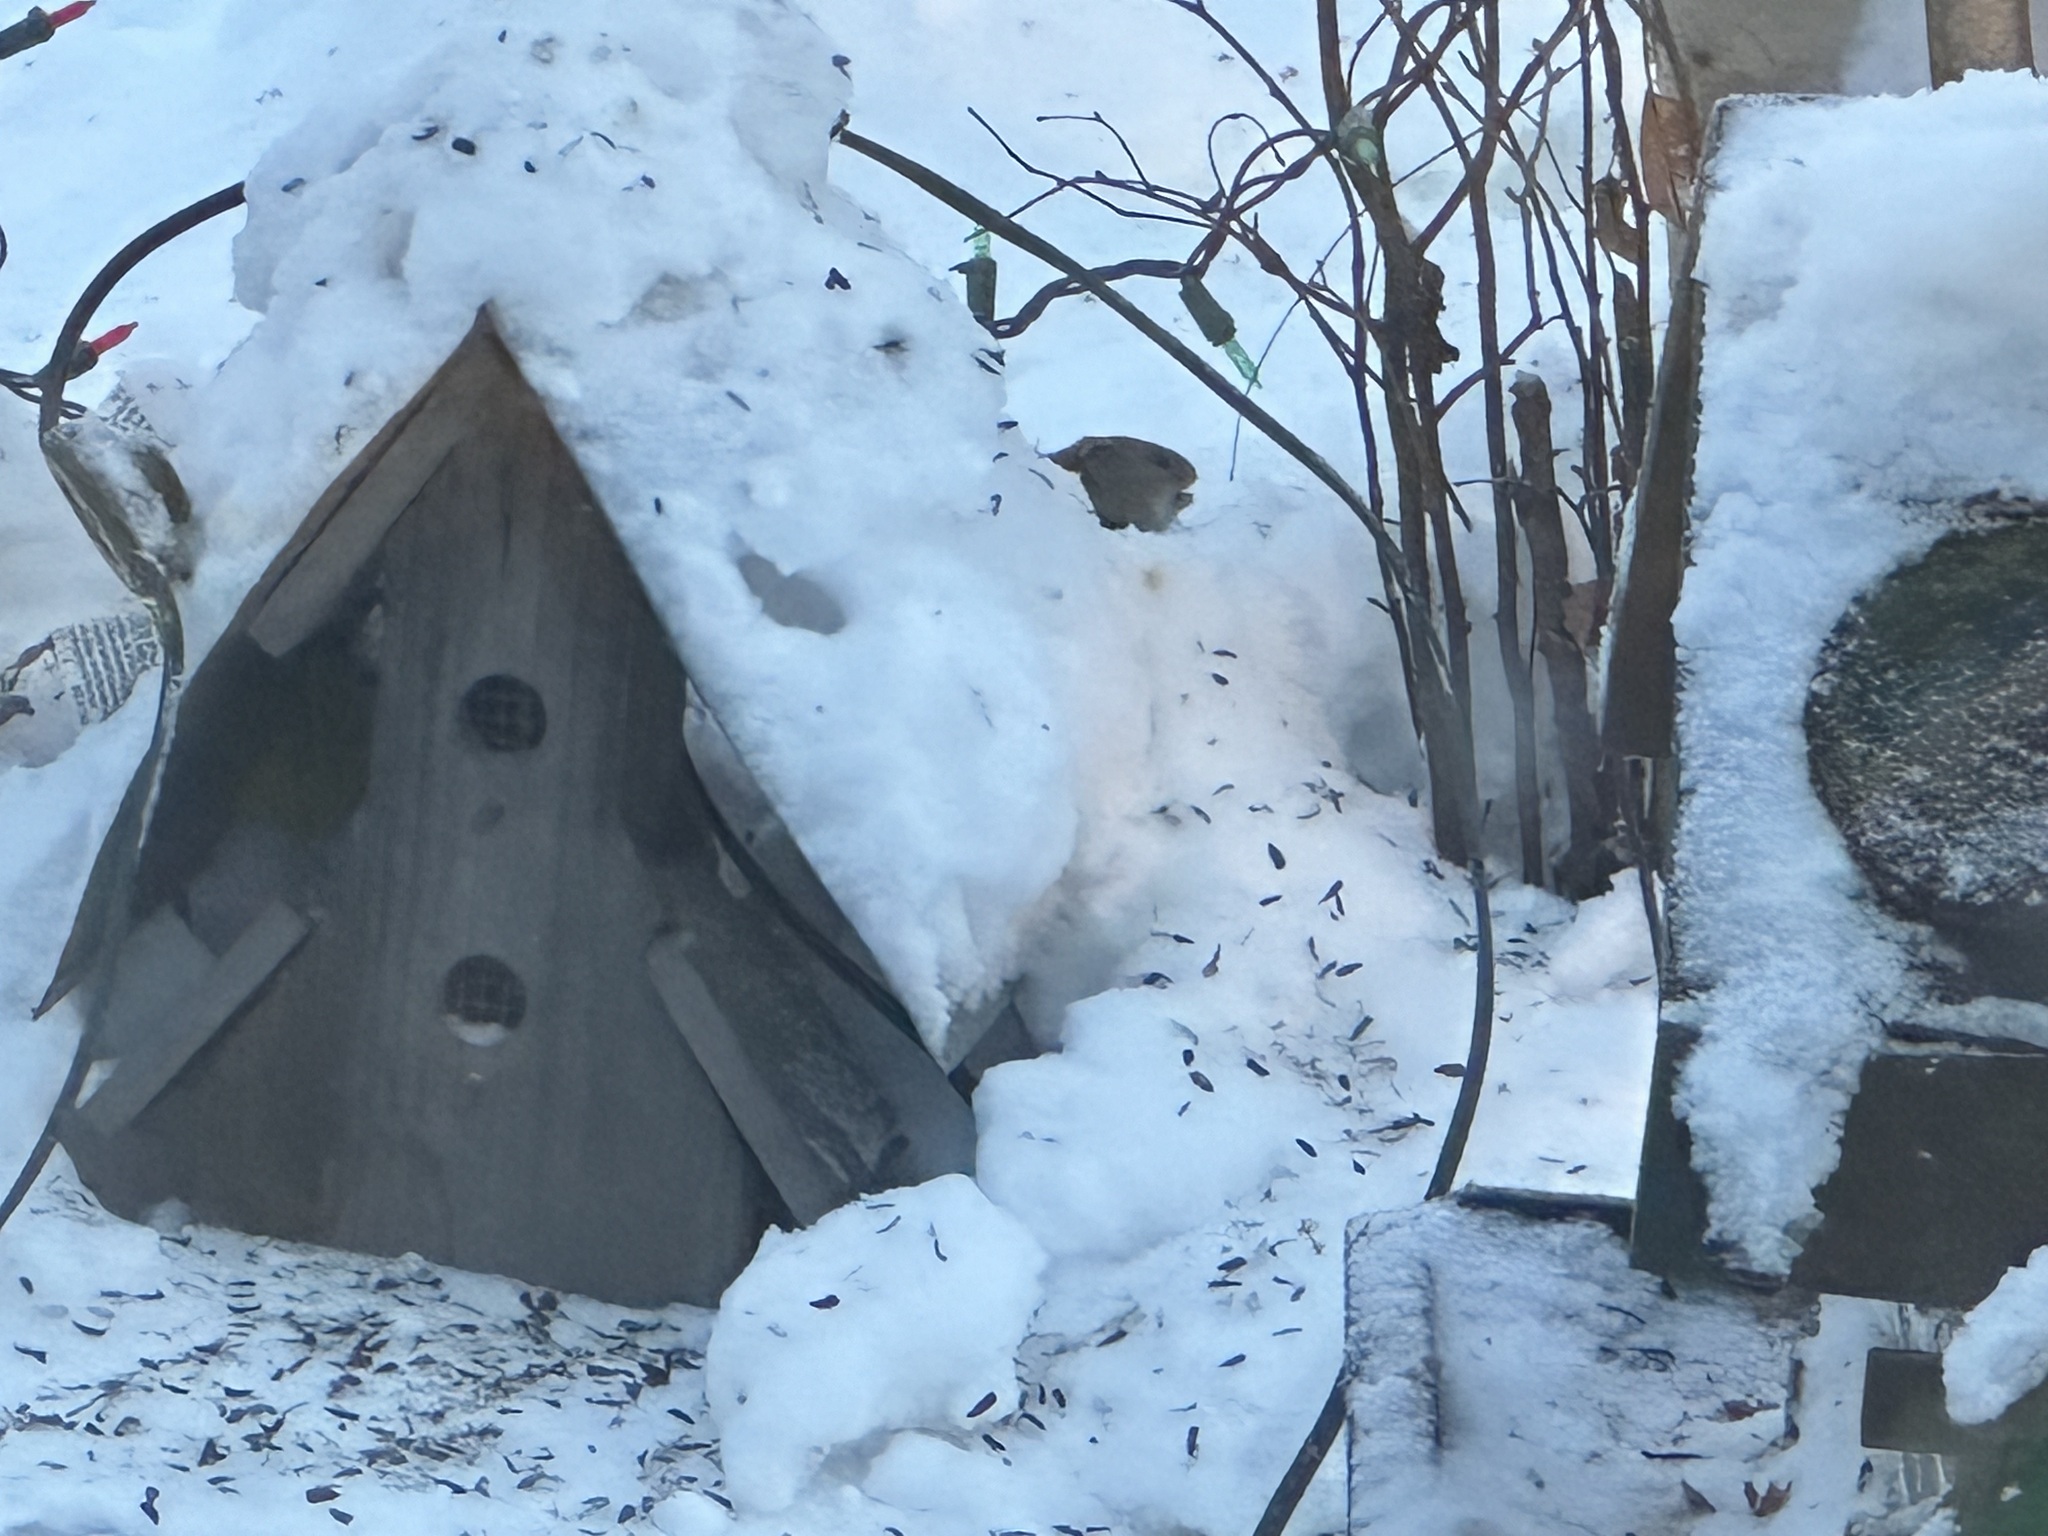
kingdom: Animalia
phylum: Chordata
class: Mammalia
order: Rodentia
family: Cricetidae
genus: Myodes
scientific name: Myodes rutilus
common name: Northern red-backed vole
